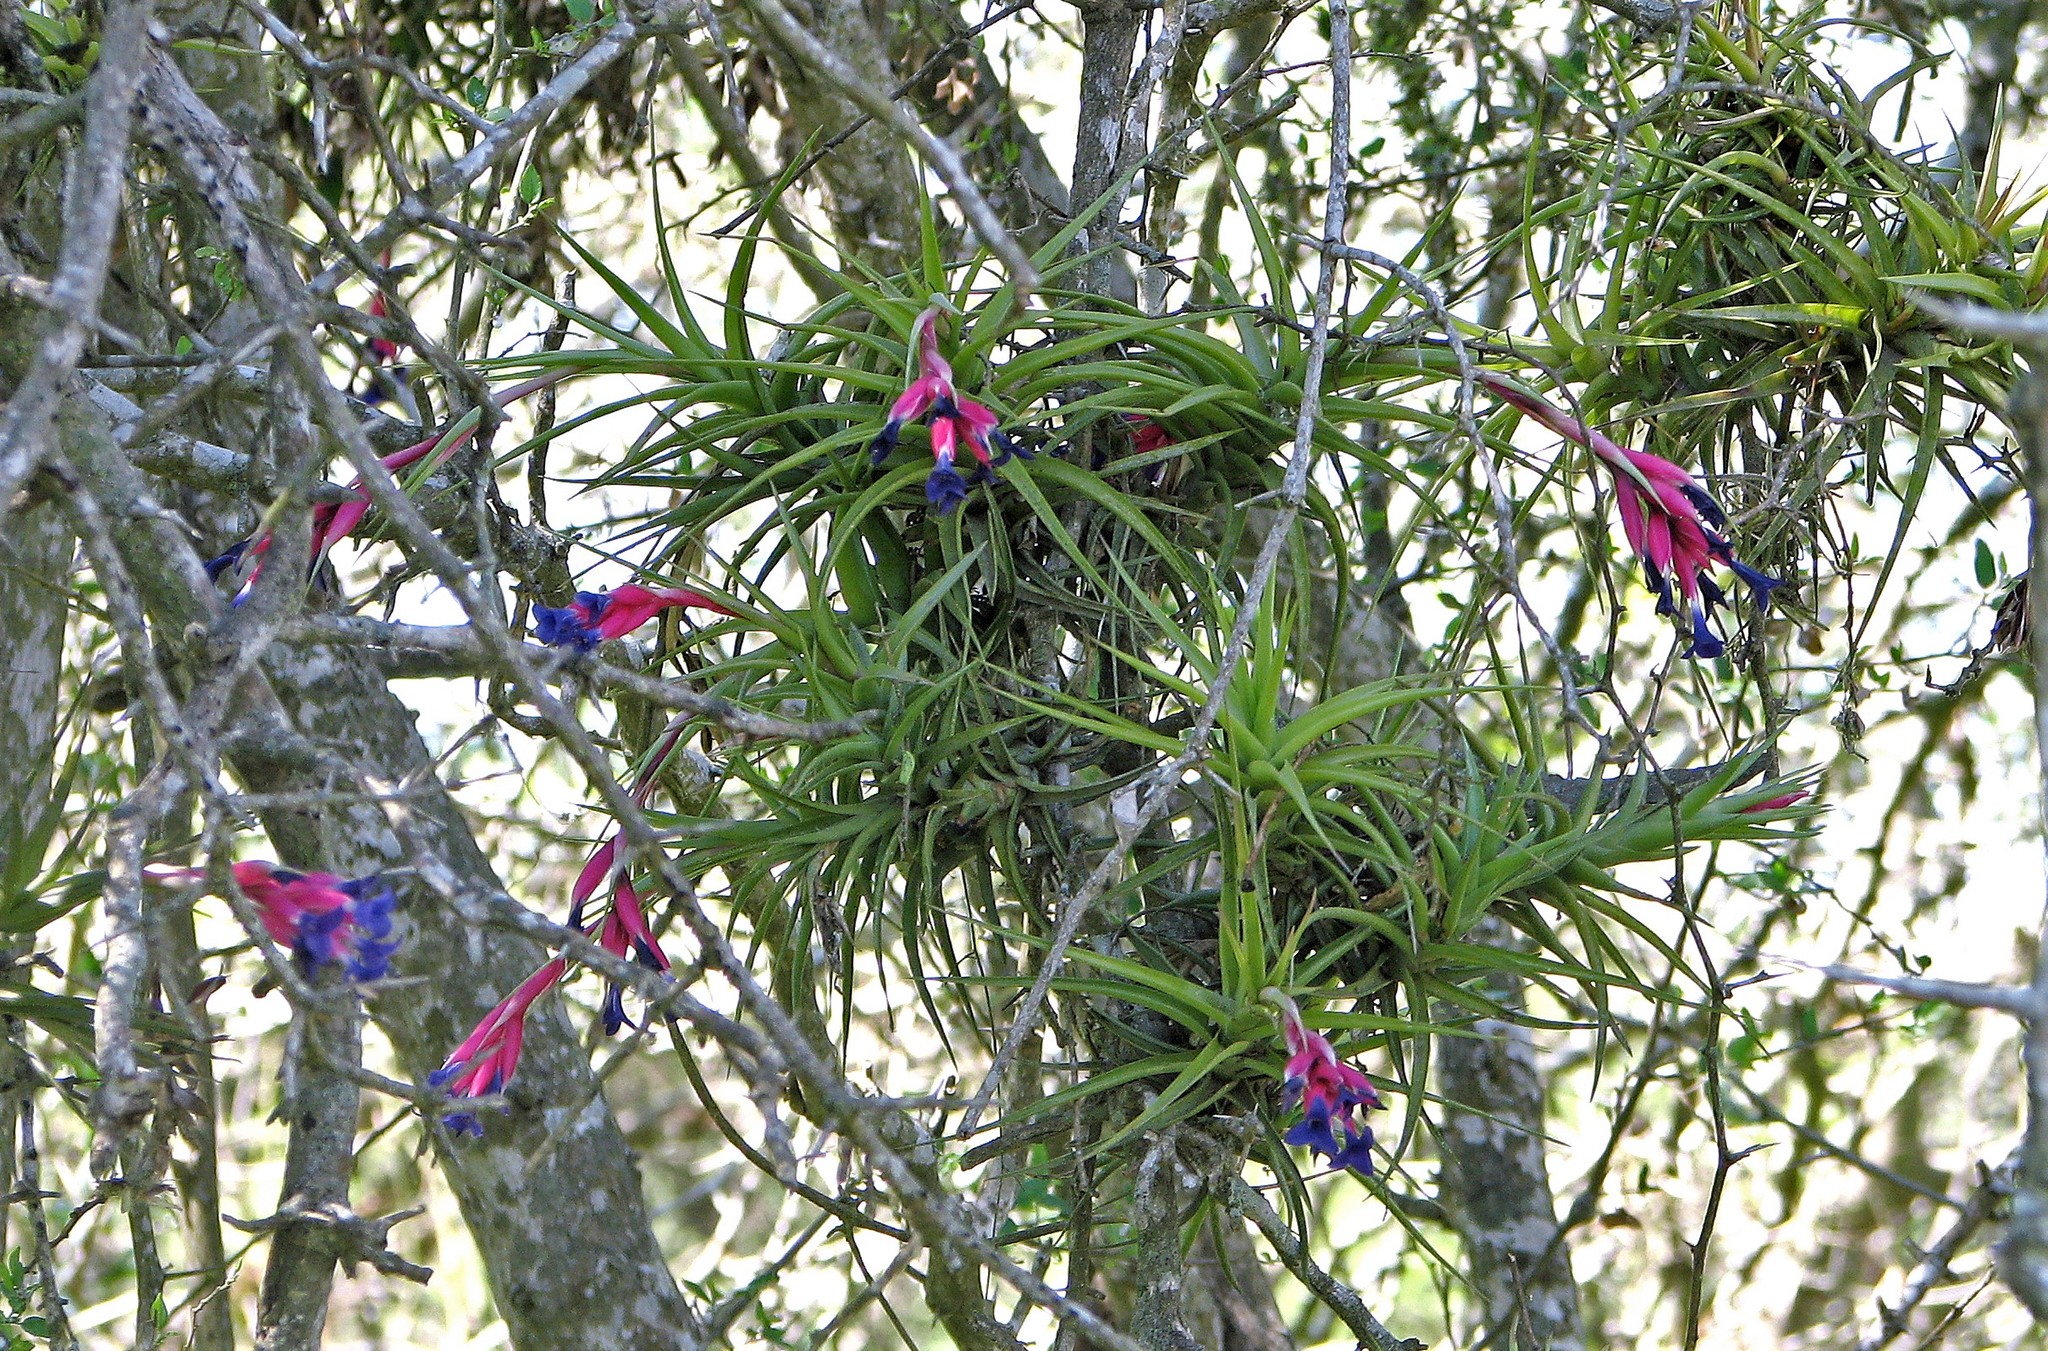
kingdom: Plantae
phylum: Tracheophyta
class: Liliopsida
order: Poales
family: Bromeliaceae
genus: Tillandsia
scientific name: Tillandsia aeranthos
